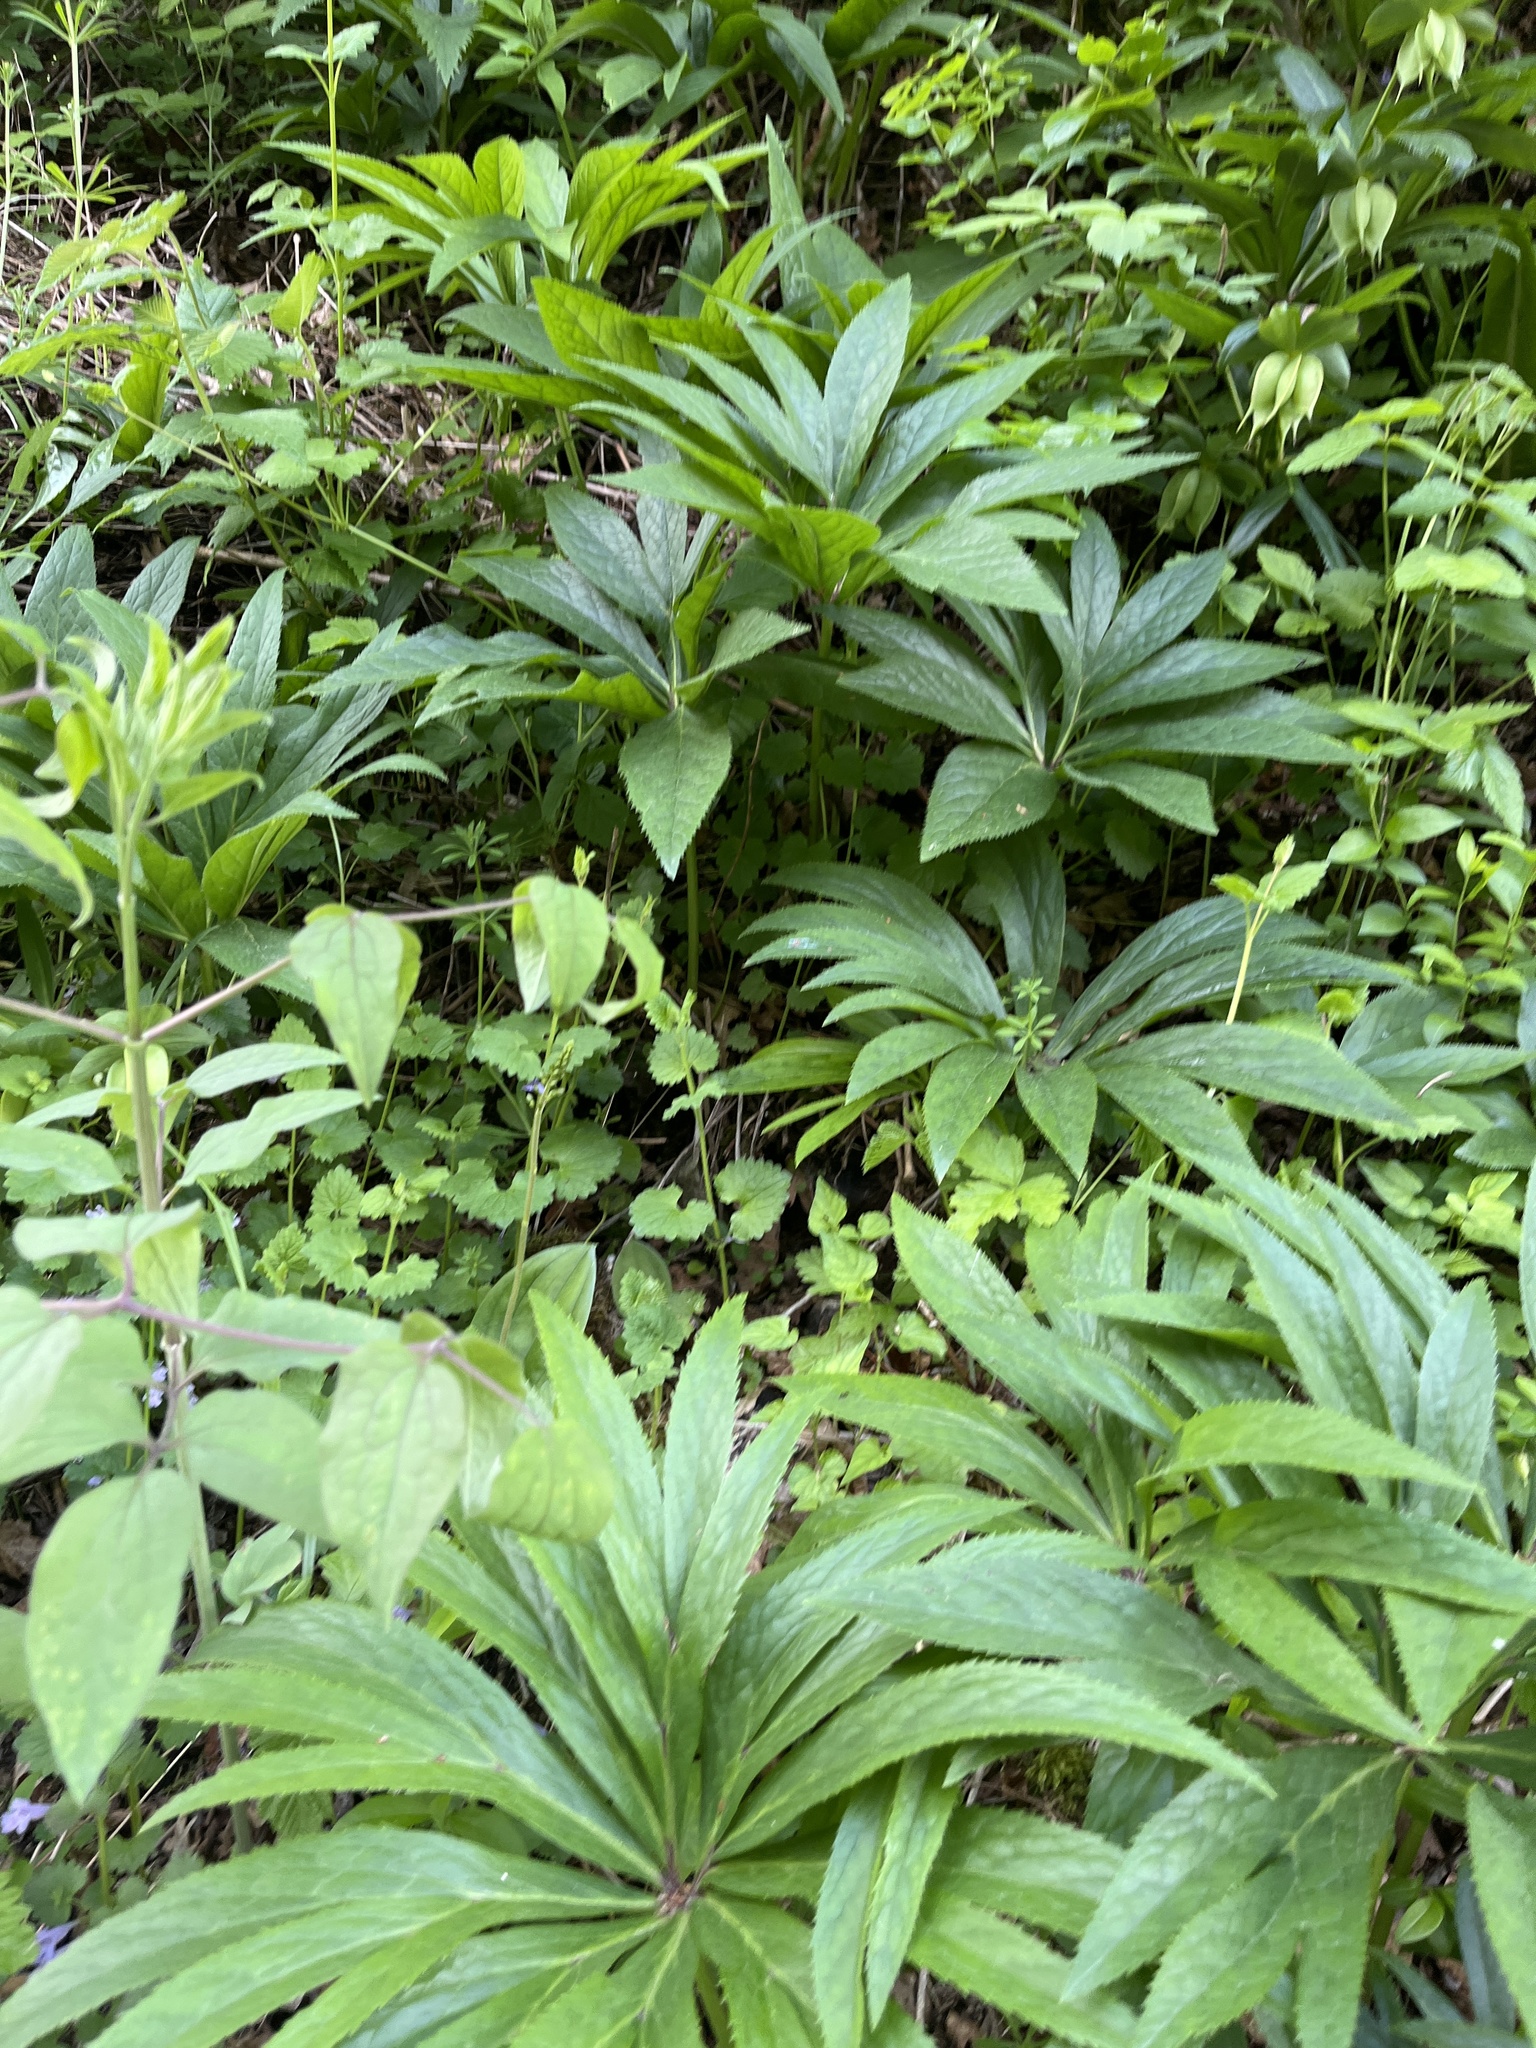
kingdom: Plantae
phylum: Tracheophyta
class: Magnoliopsida
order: Ranunculales
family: Ranunculaceae
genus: Helleborus
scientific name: Helleborus bocconei
